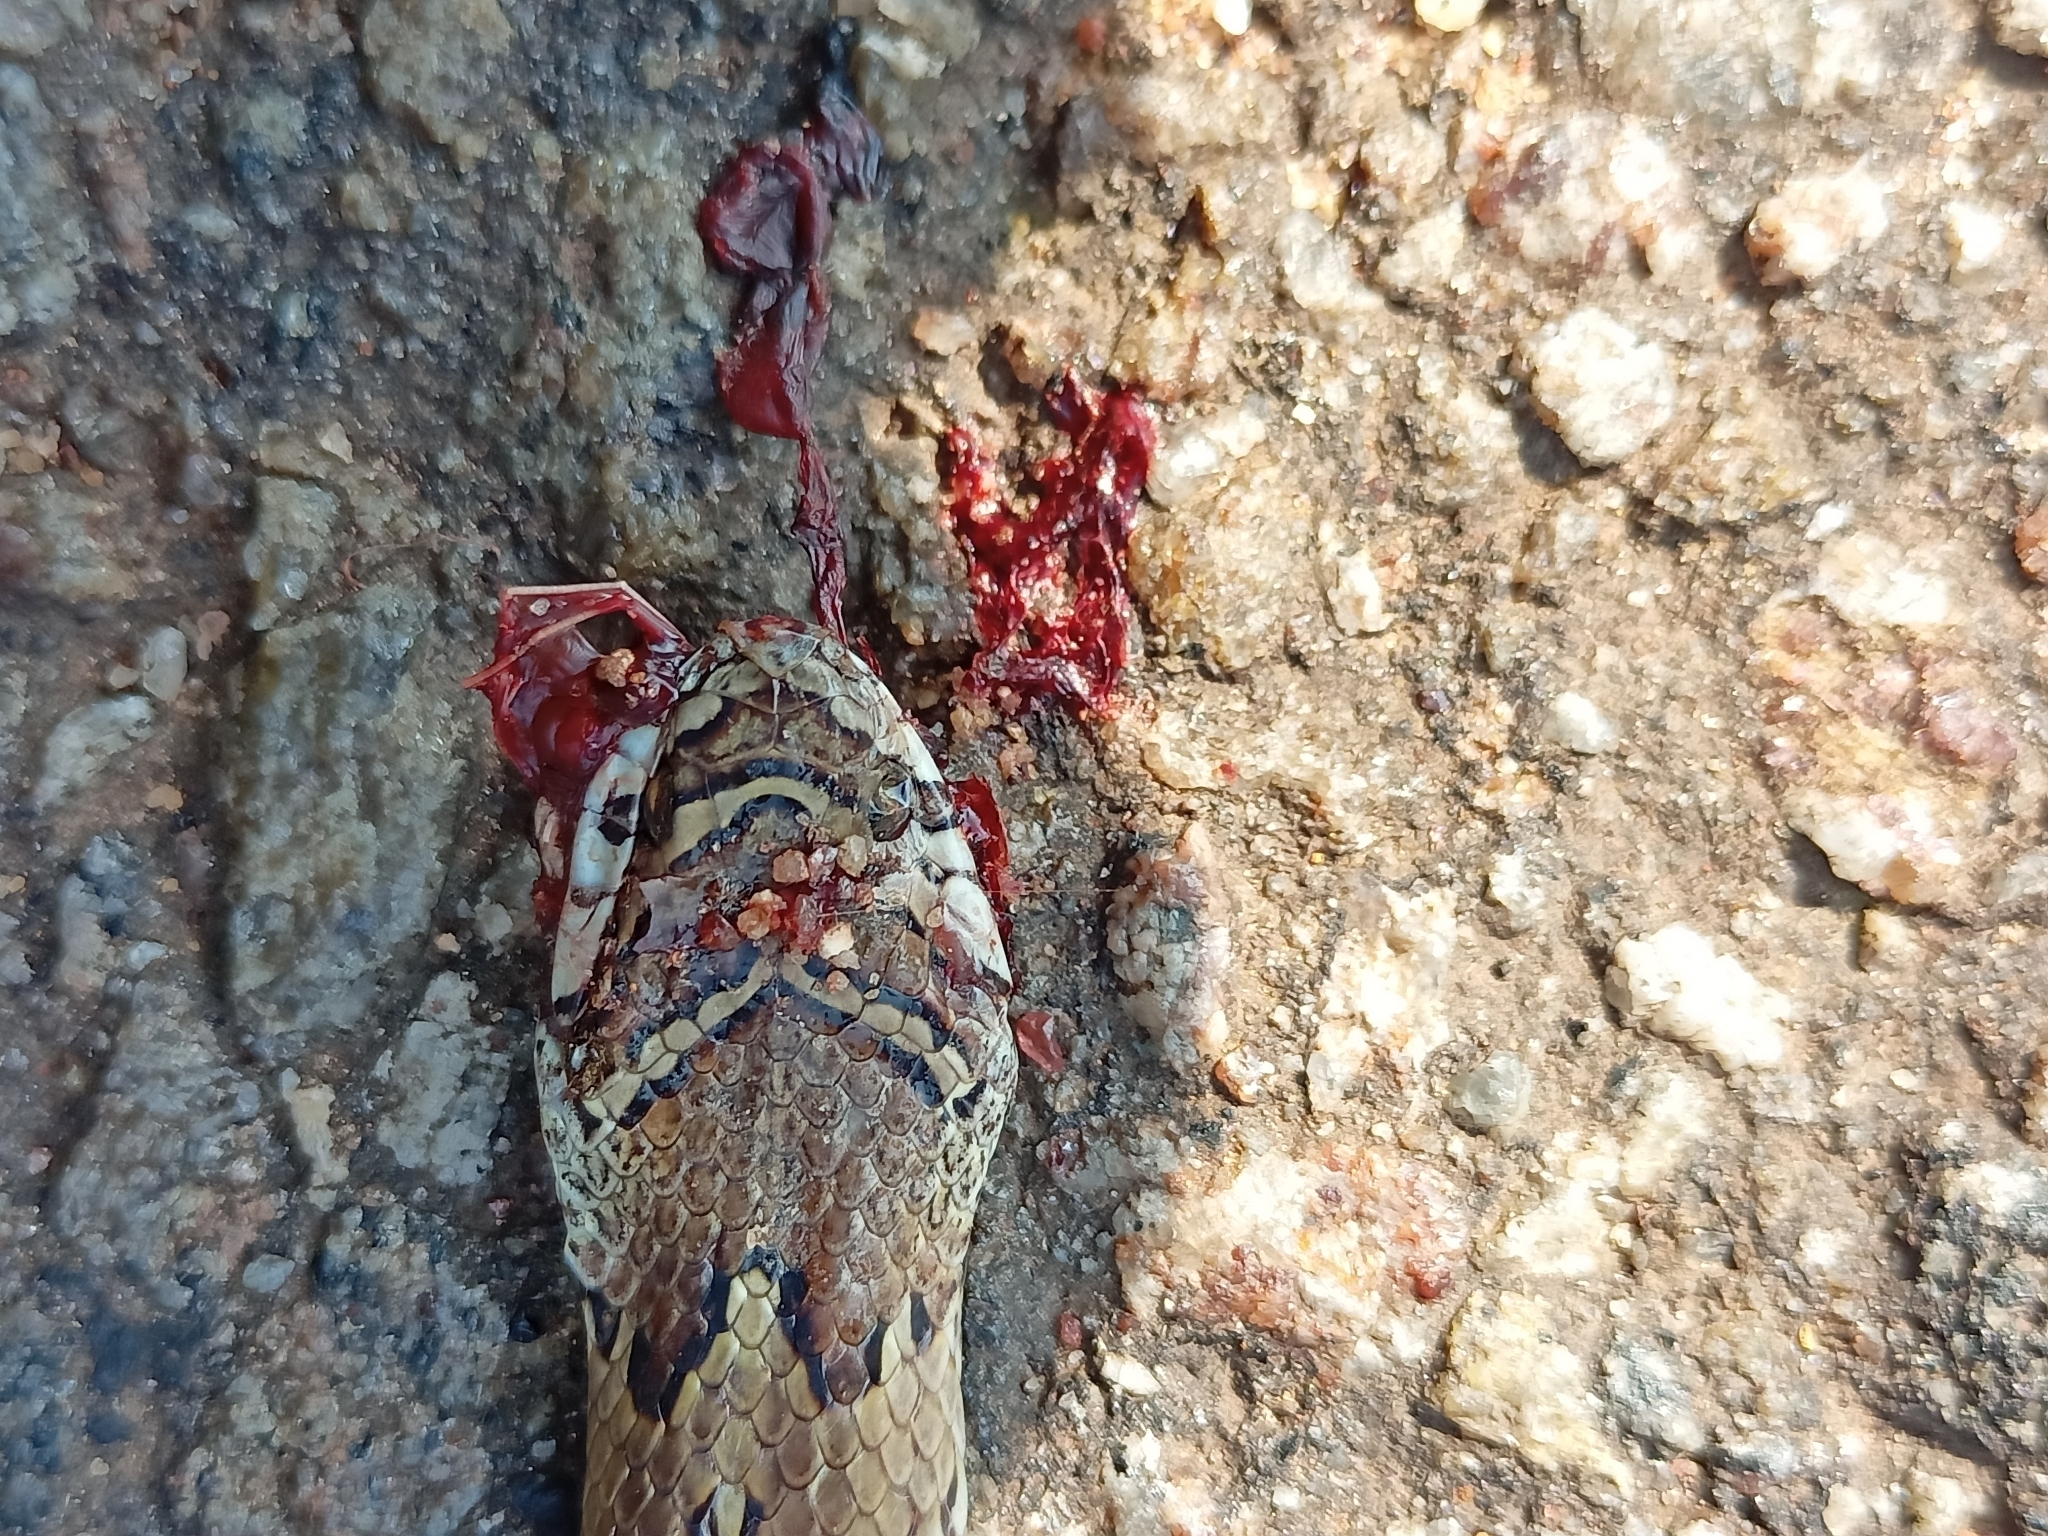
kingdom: Animalia
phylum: Chordata
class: Squamata
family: Colubridae
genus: Oligodon
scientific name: Oligodon taeniolatus
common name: Loos snake
